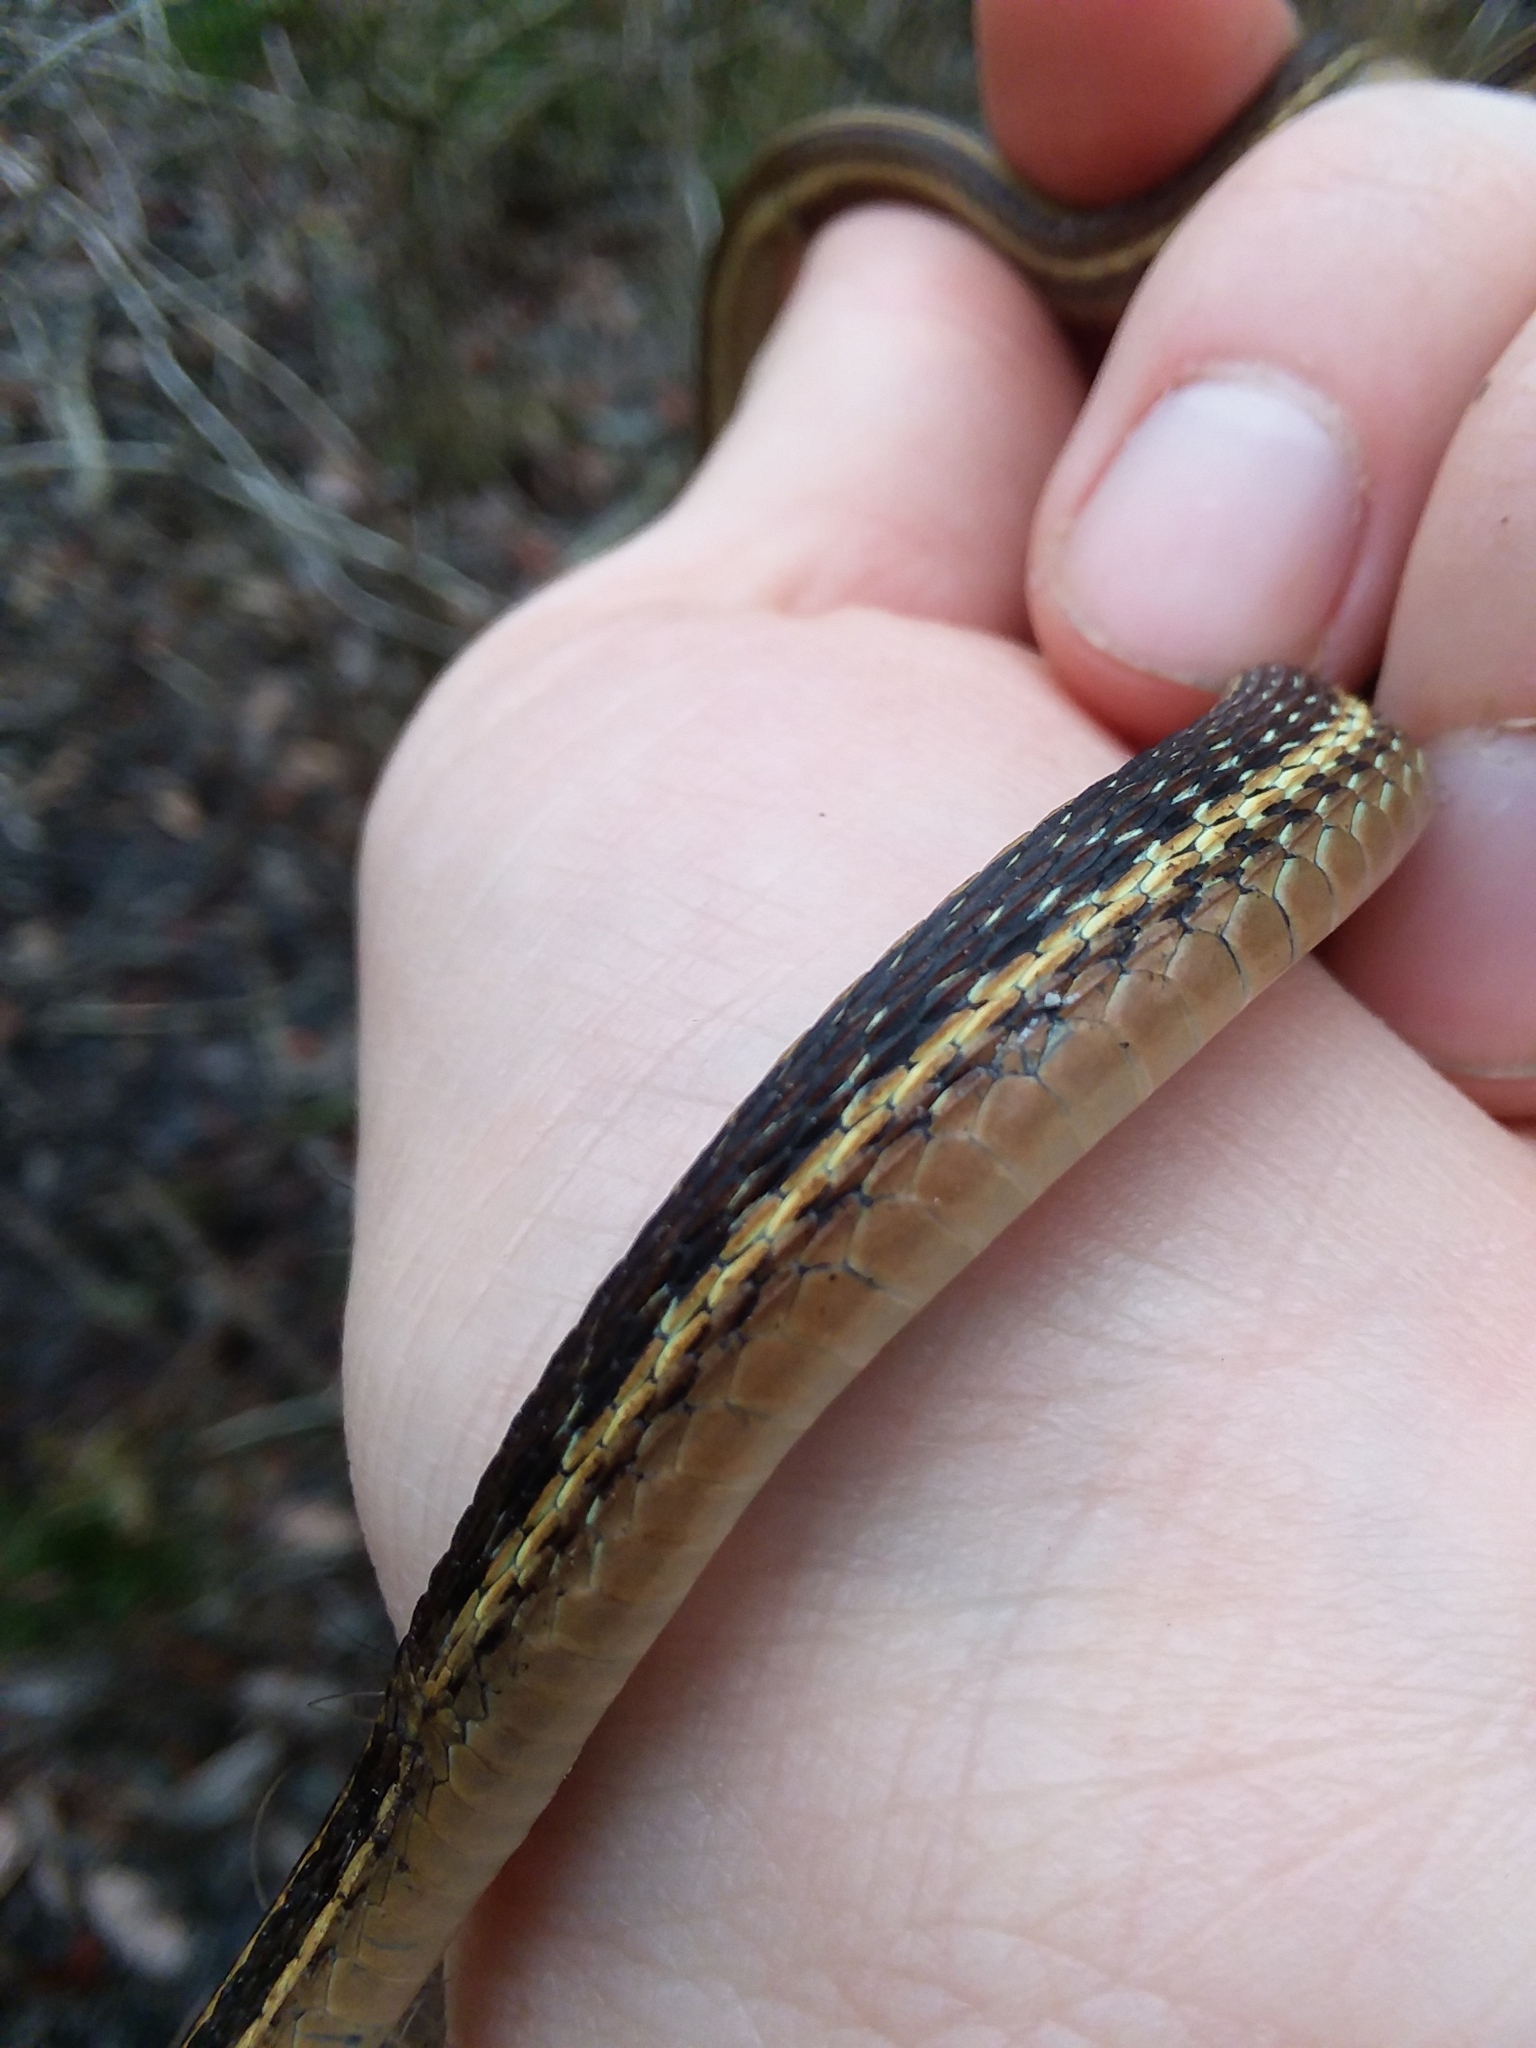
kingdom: Animalia
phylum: Chordata
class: Squamata
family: Colubridae
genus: Thamnophis
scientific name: Thamnophis saurita
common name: Eastern ribbonsnake
